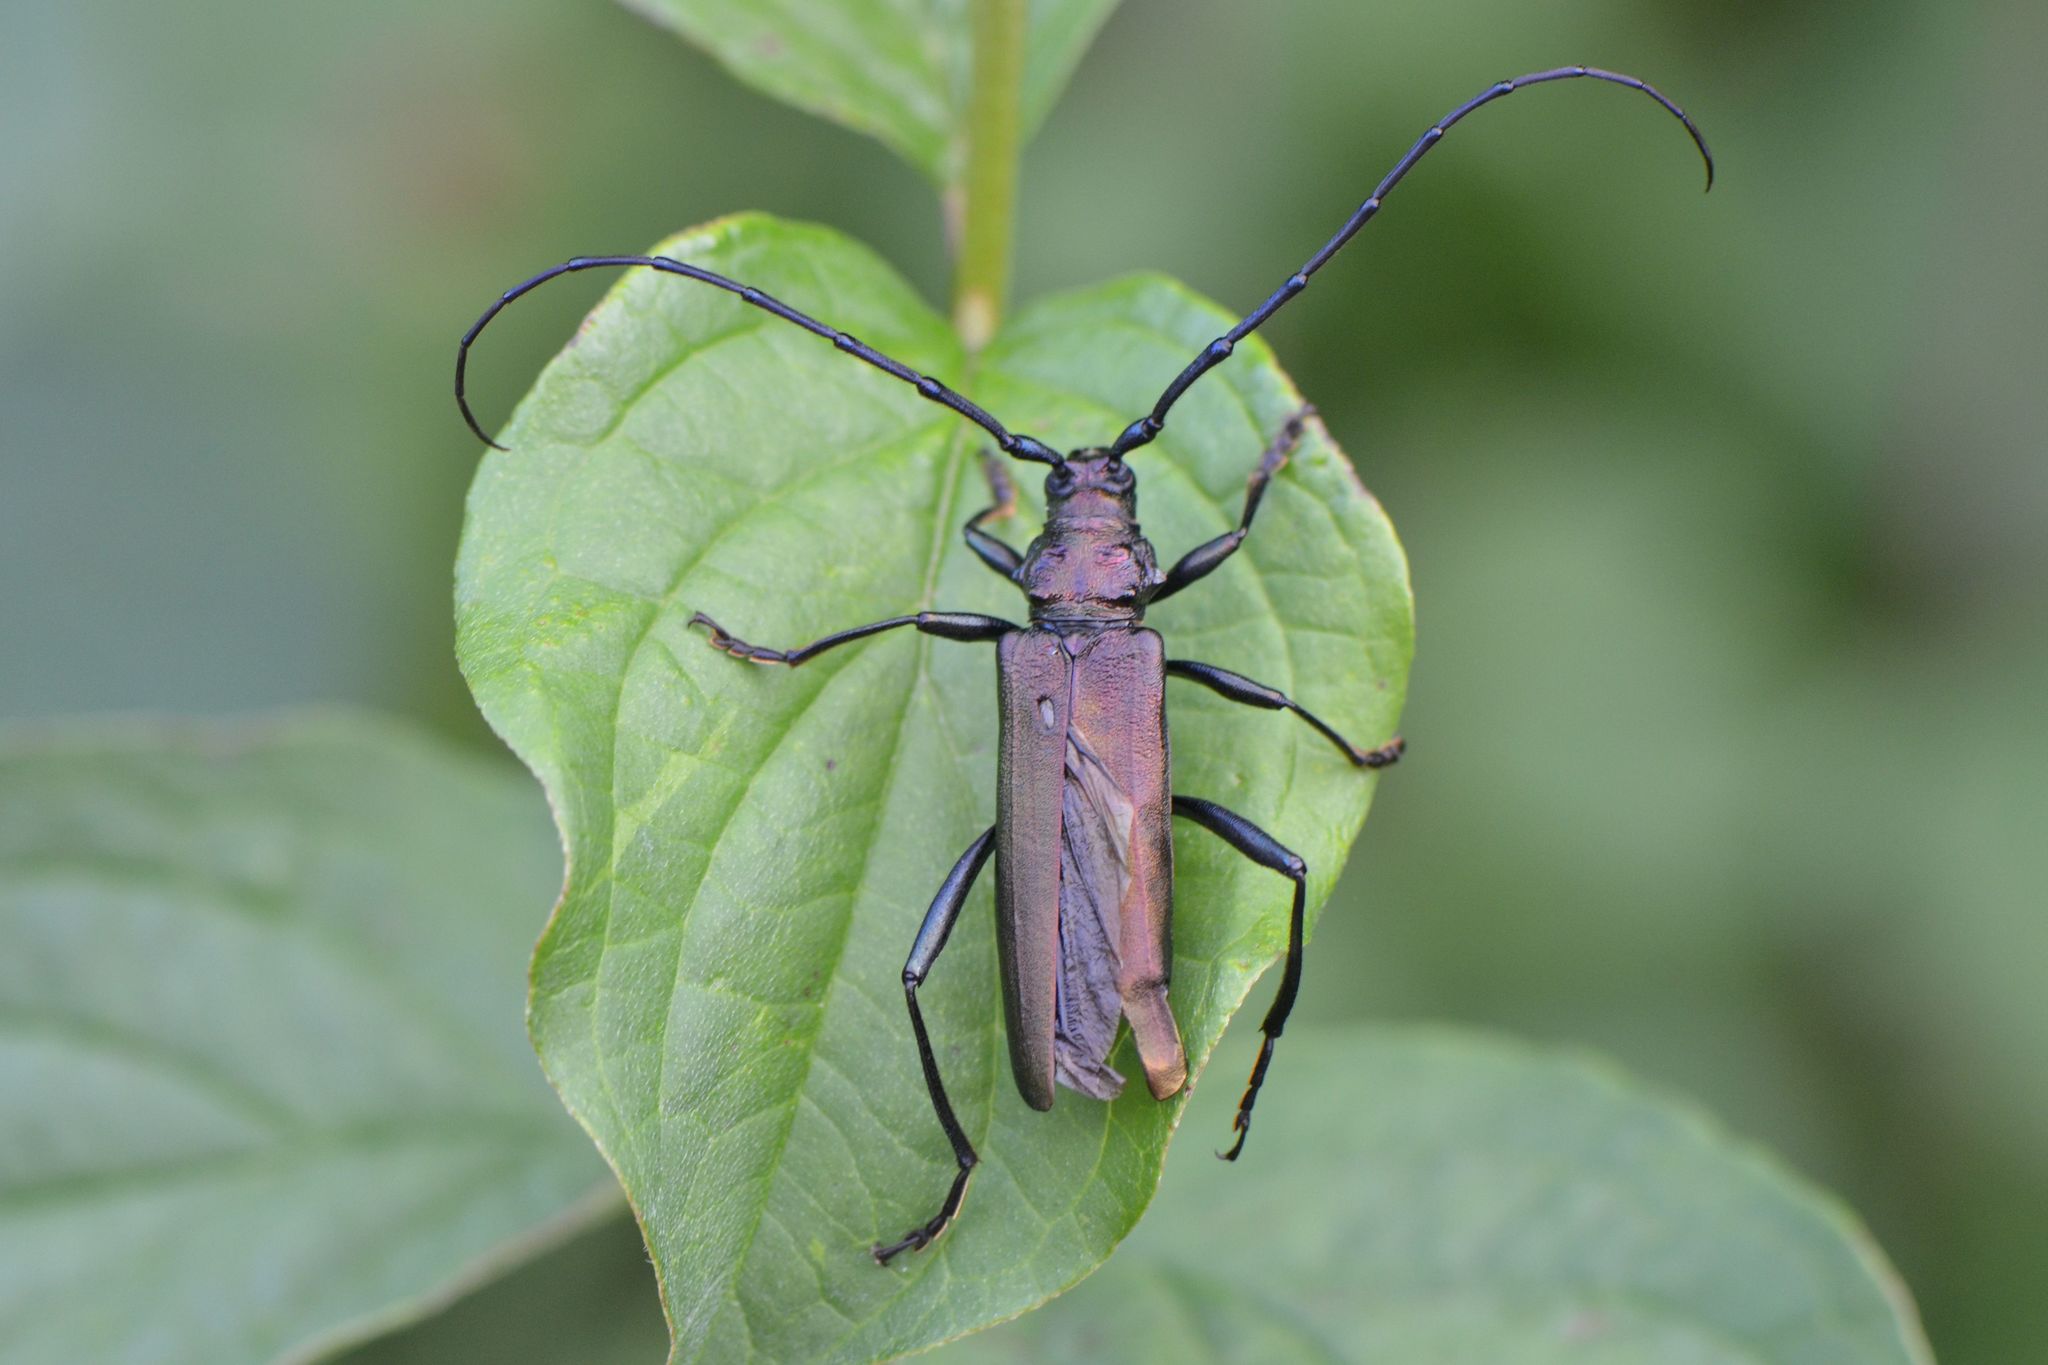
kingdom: Animalia
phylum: Arthropoda
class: Insecta
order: Coleoptera
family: Cerambycidae
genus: Aromia
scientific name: Aromia moschata
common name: Musk beetle
